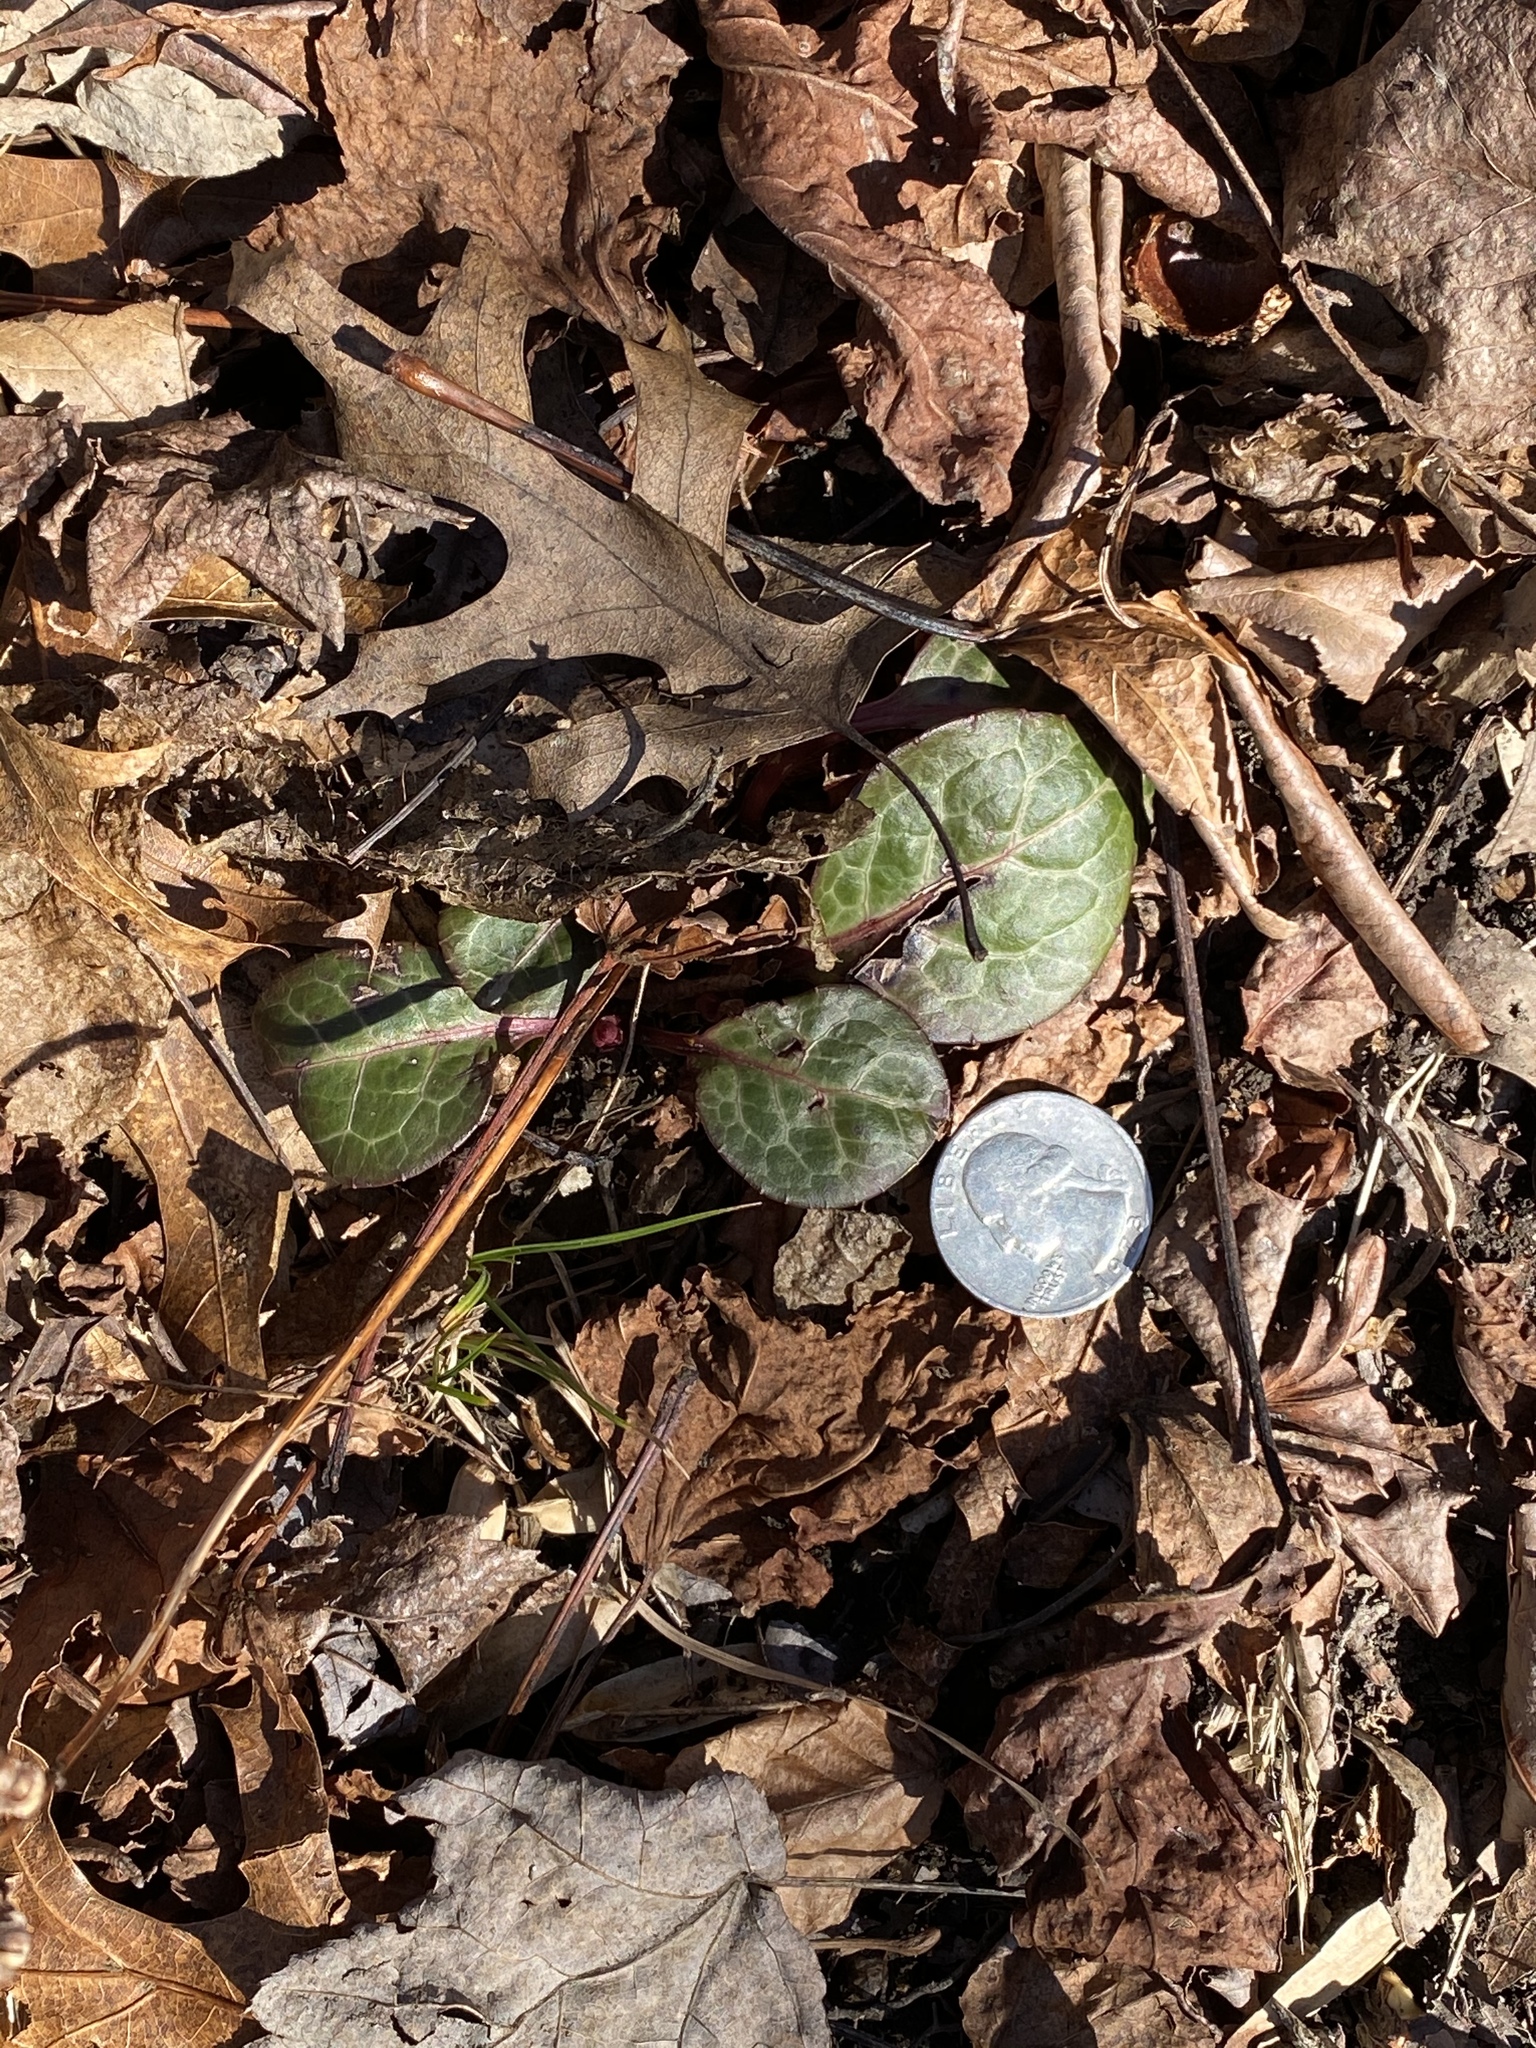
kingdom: Plantae
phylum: Tracheophyta
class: Magnoliopsida
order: Ericales
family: Ericaceae
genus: Pyrola
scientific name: Pyrola americana
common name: American wintergreen
